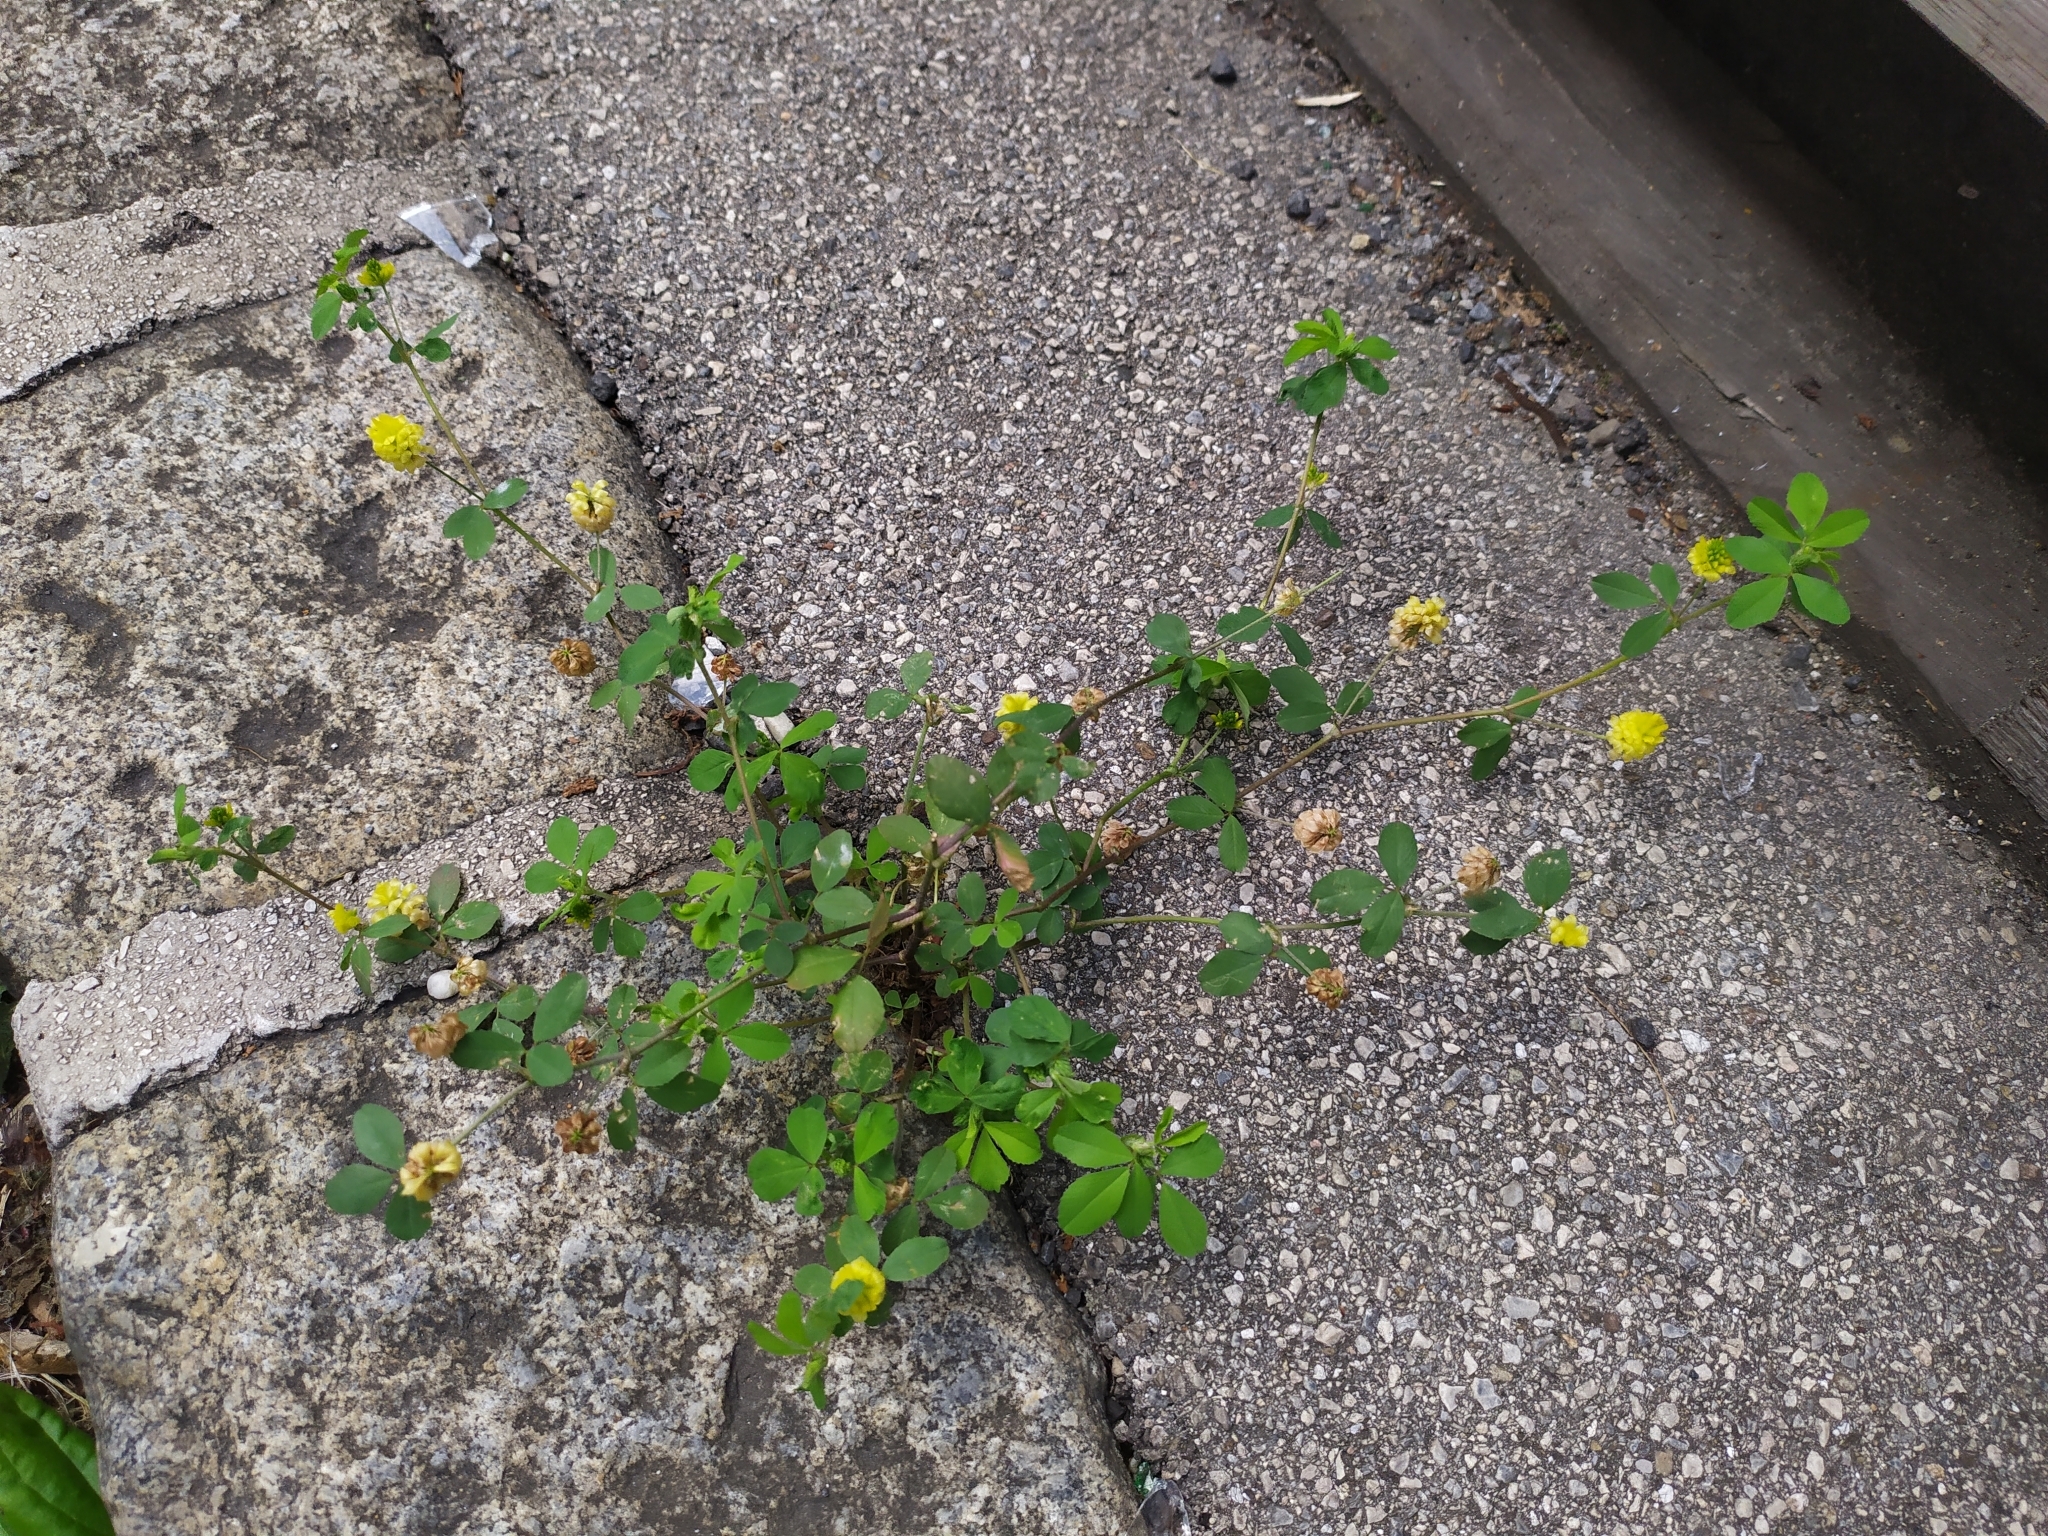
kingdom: Plantae
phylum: Tracheophyta
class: Magnoliopsida
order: Fabales
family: Fabaceae
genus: Trifolium
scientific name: Trifolium campestre
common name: Field clover
